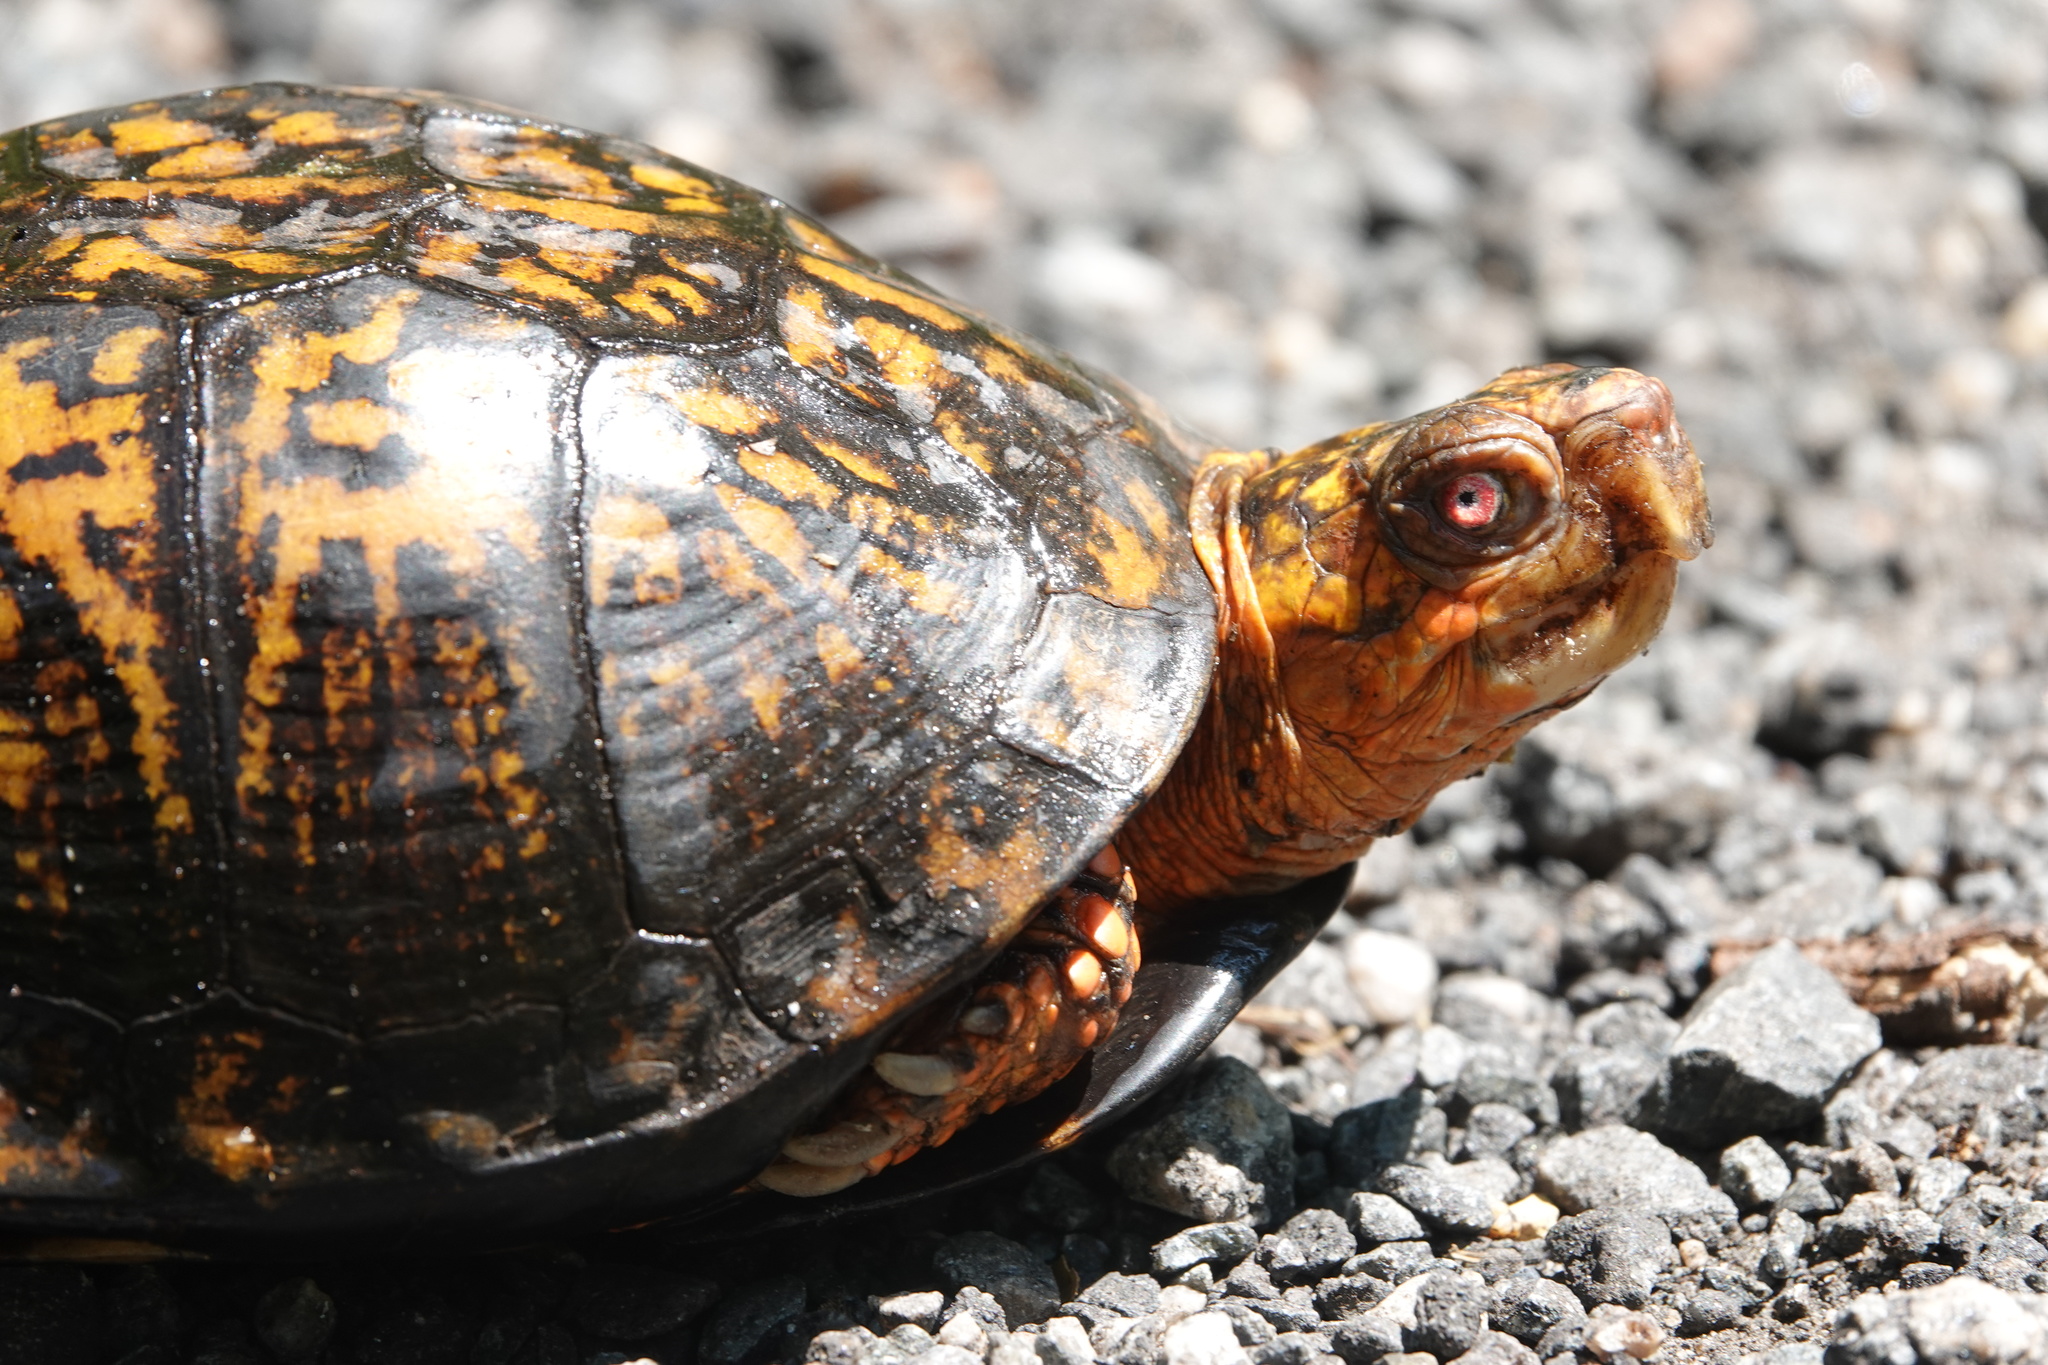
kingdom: Animalia
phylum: Chordata
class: Testudines
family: Emydidae
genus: Terrapene
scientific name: Terrapene carolina
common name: Common box turtle
